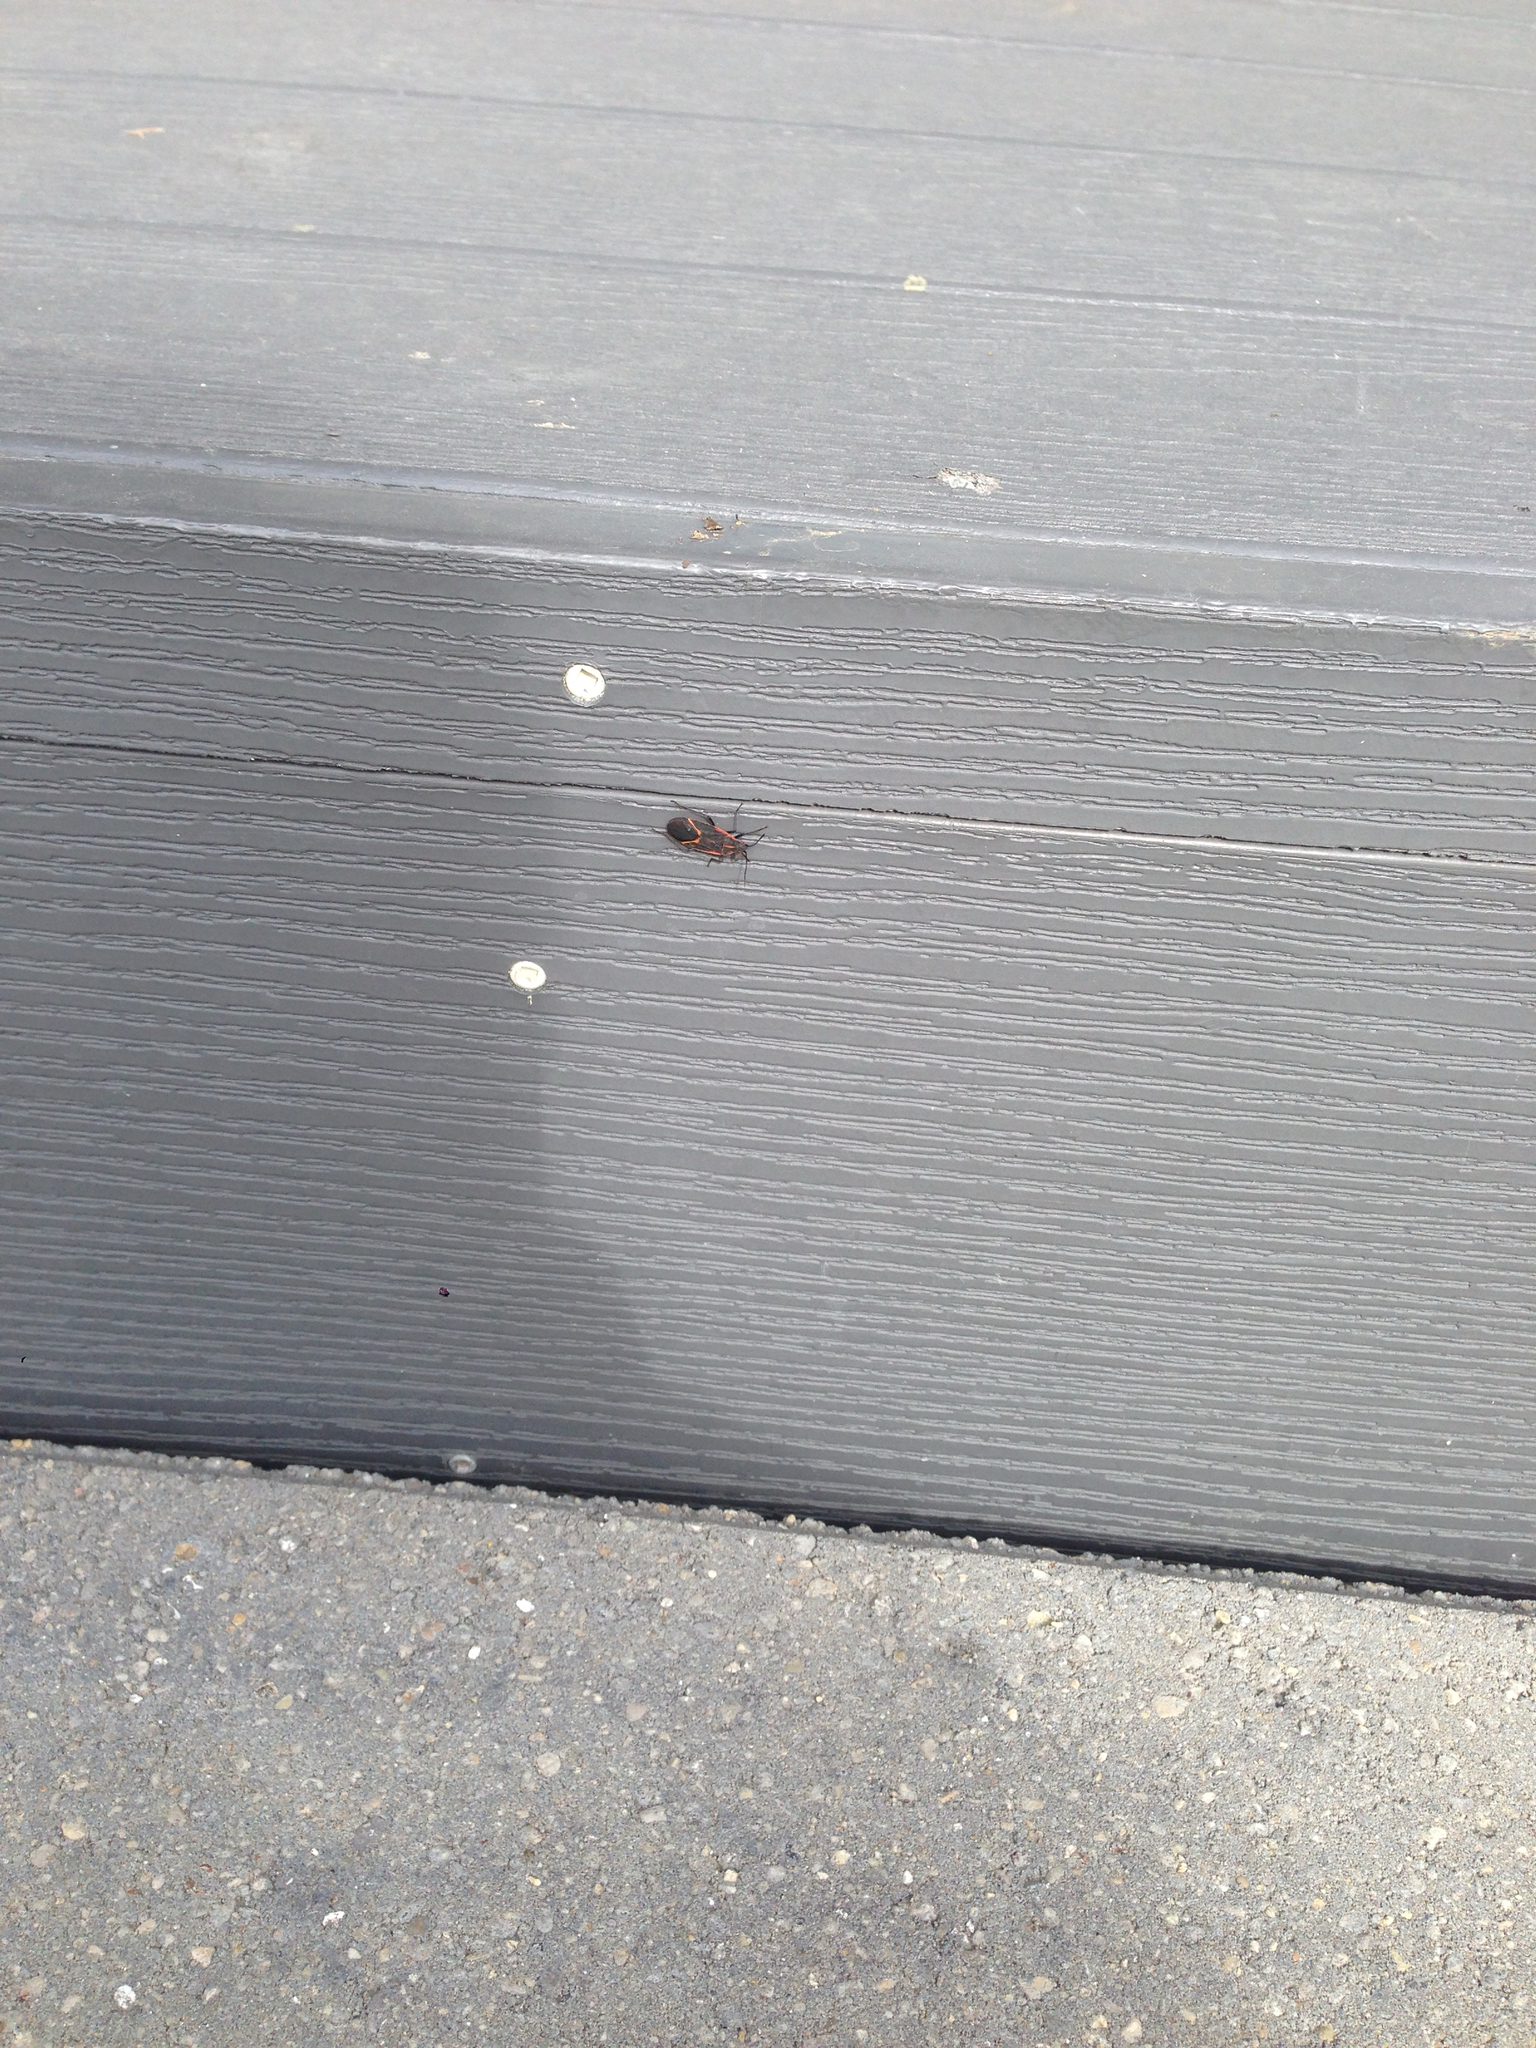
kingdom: Animalia
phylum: Arthropoda
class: Insecta
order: Hemiptera
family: Rhopalidae
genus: Boisea
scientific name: Boisea trivittata
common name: Boxelder bug
